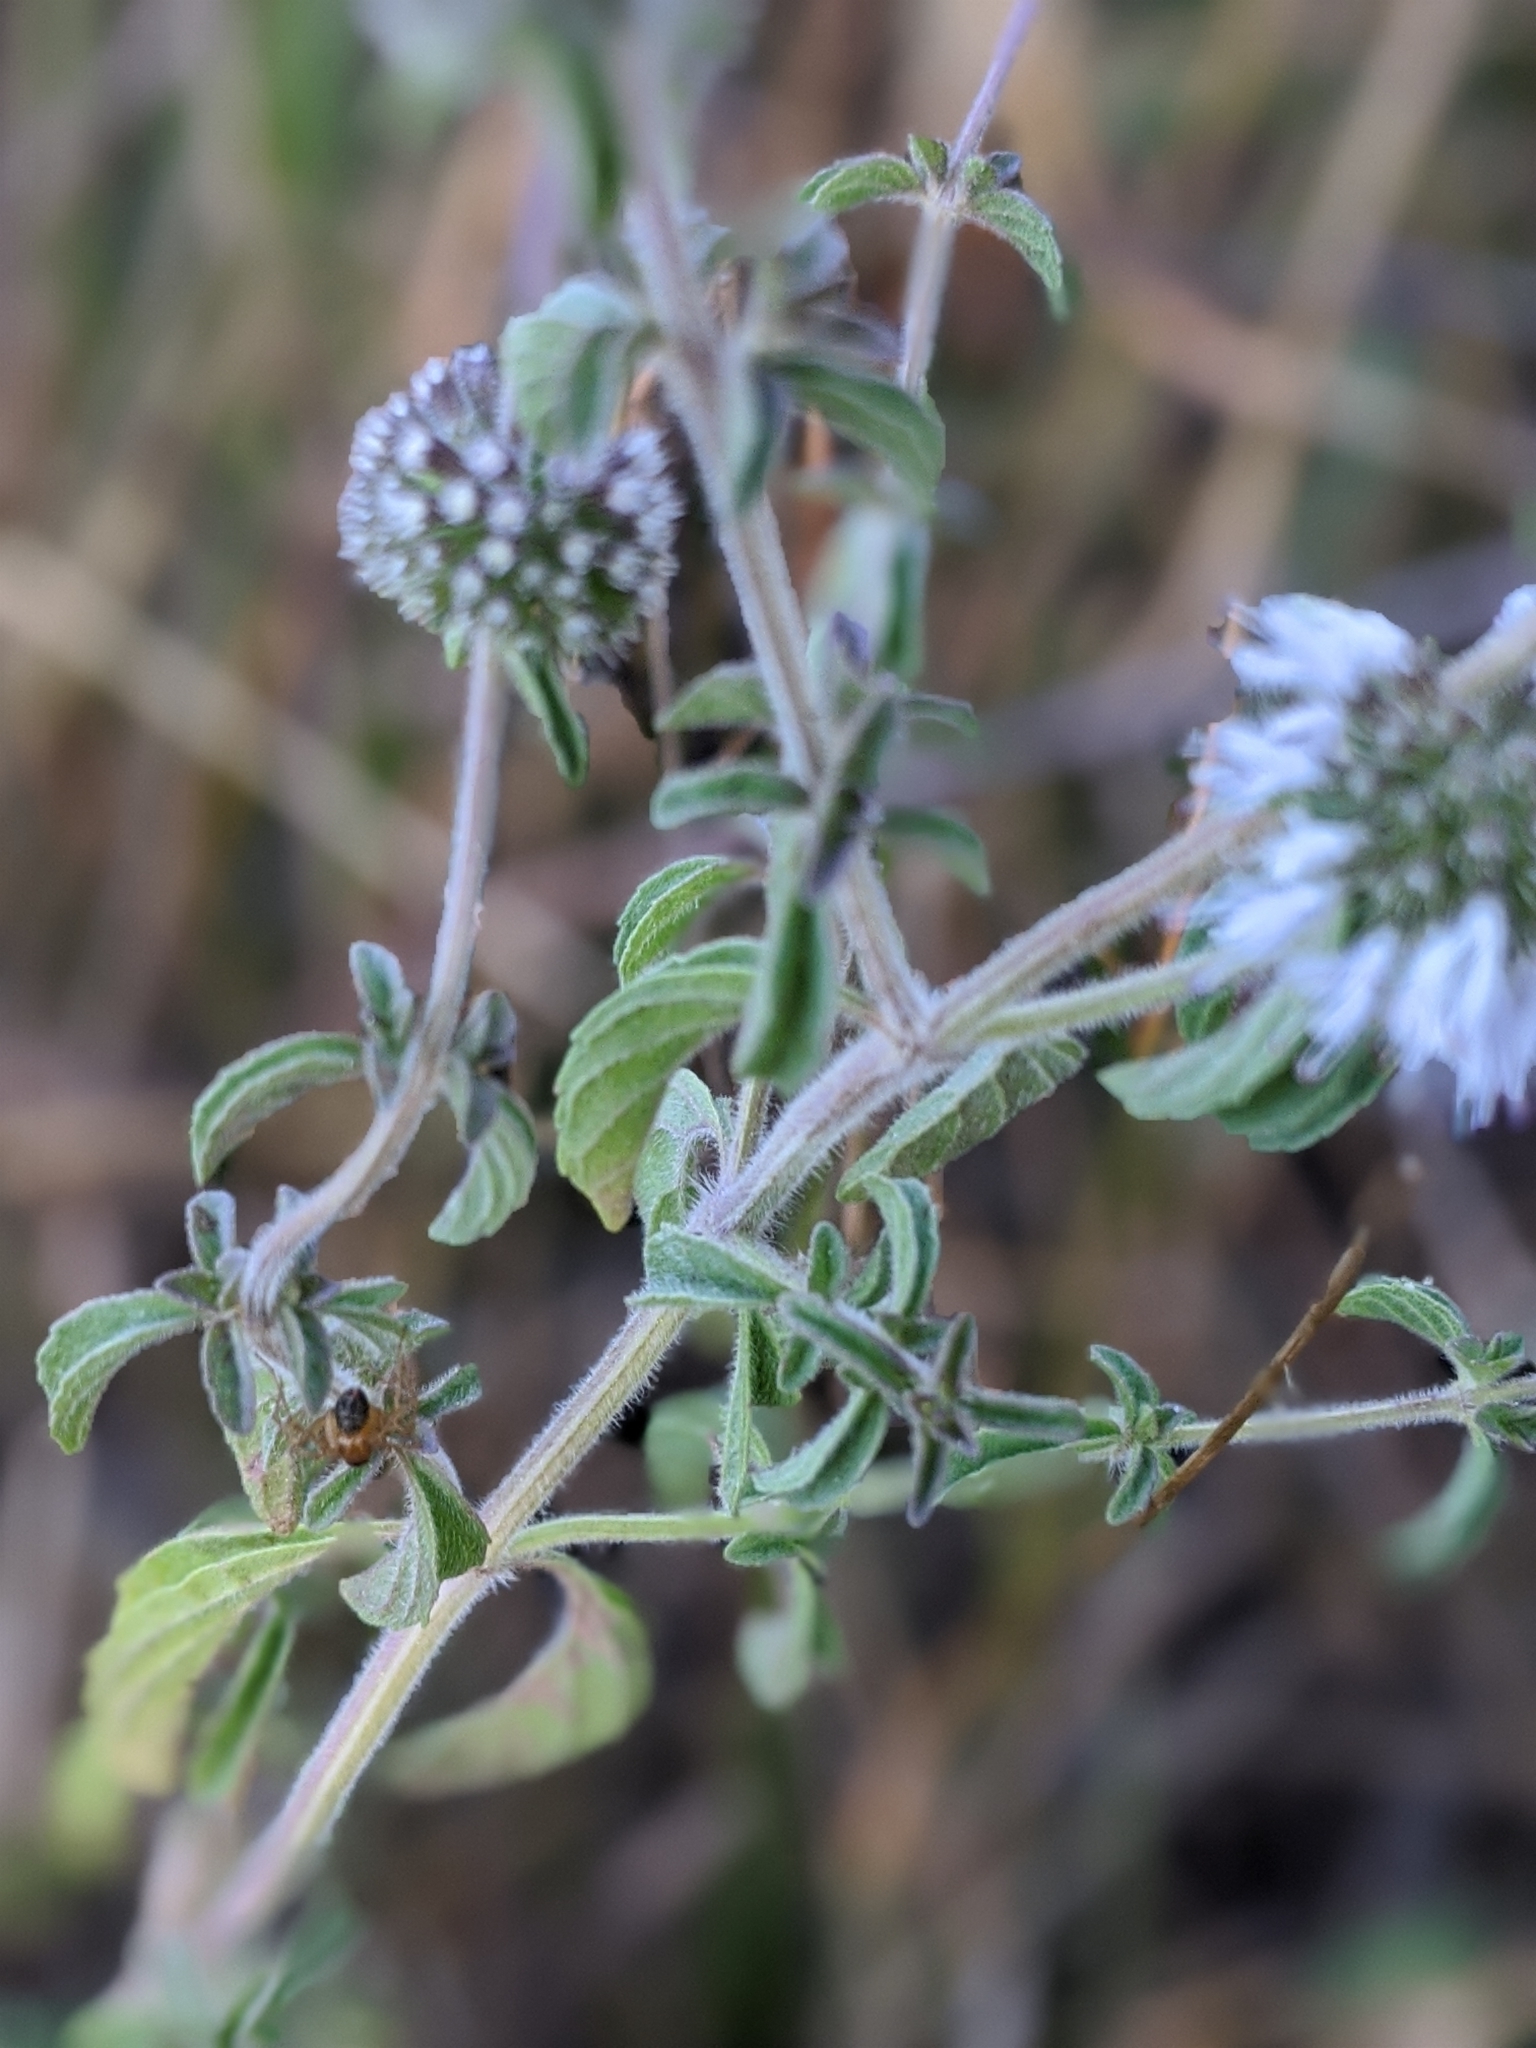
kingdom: Plantae
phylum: Tracheophyta
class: Magnoliopsida
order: Lamiales
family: Lamiaceae
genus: Mentha
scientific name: Mentha pulegium
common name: Pennyroyal
